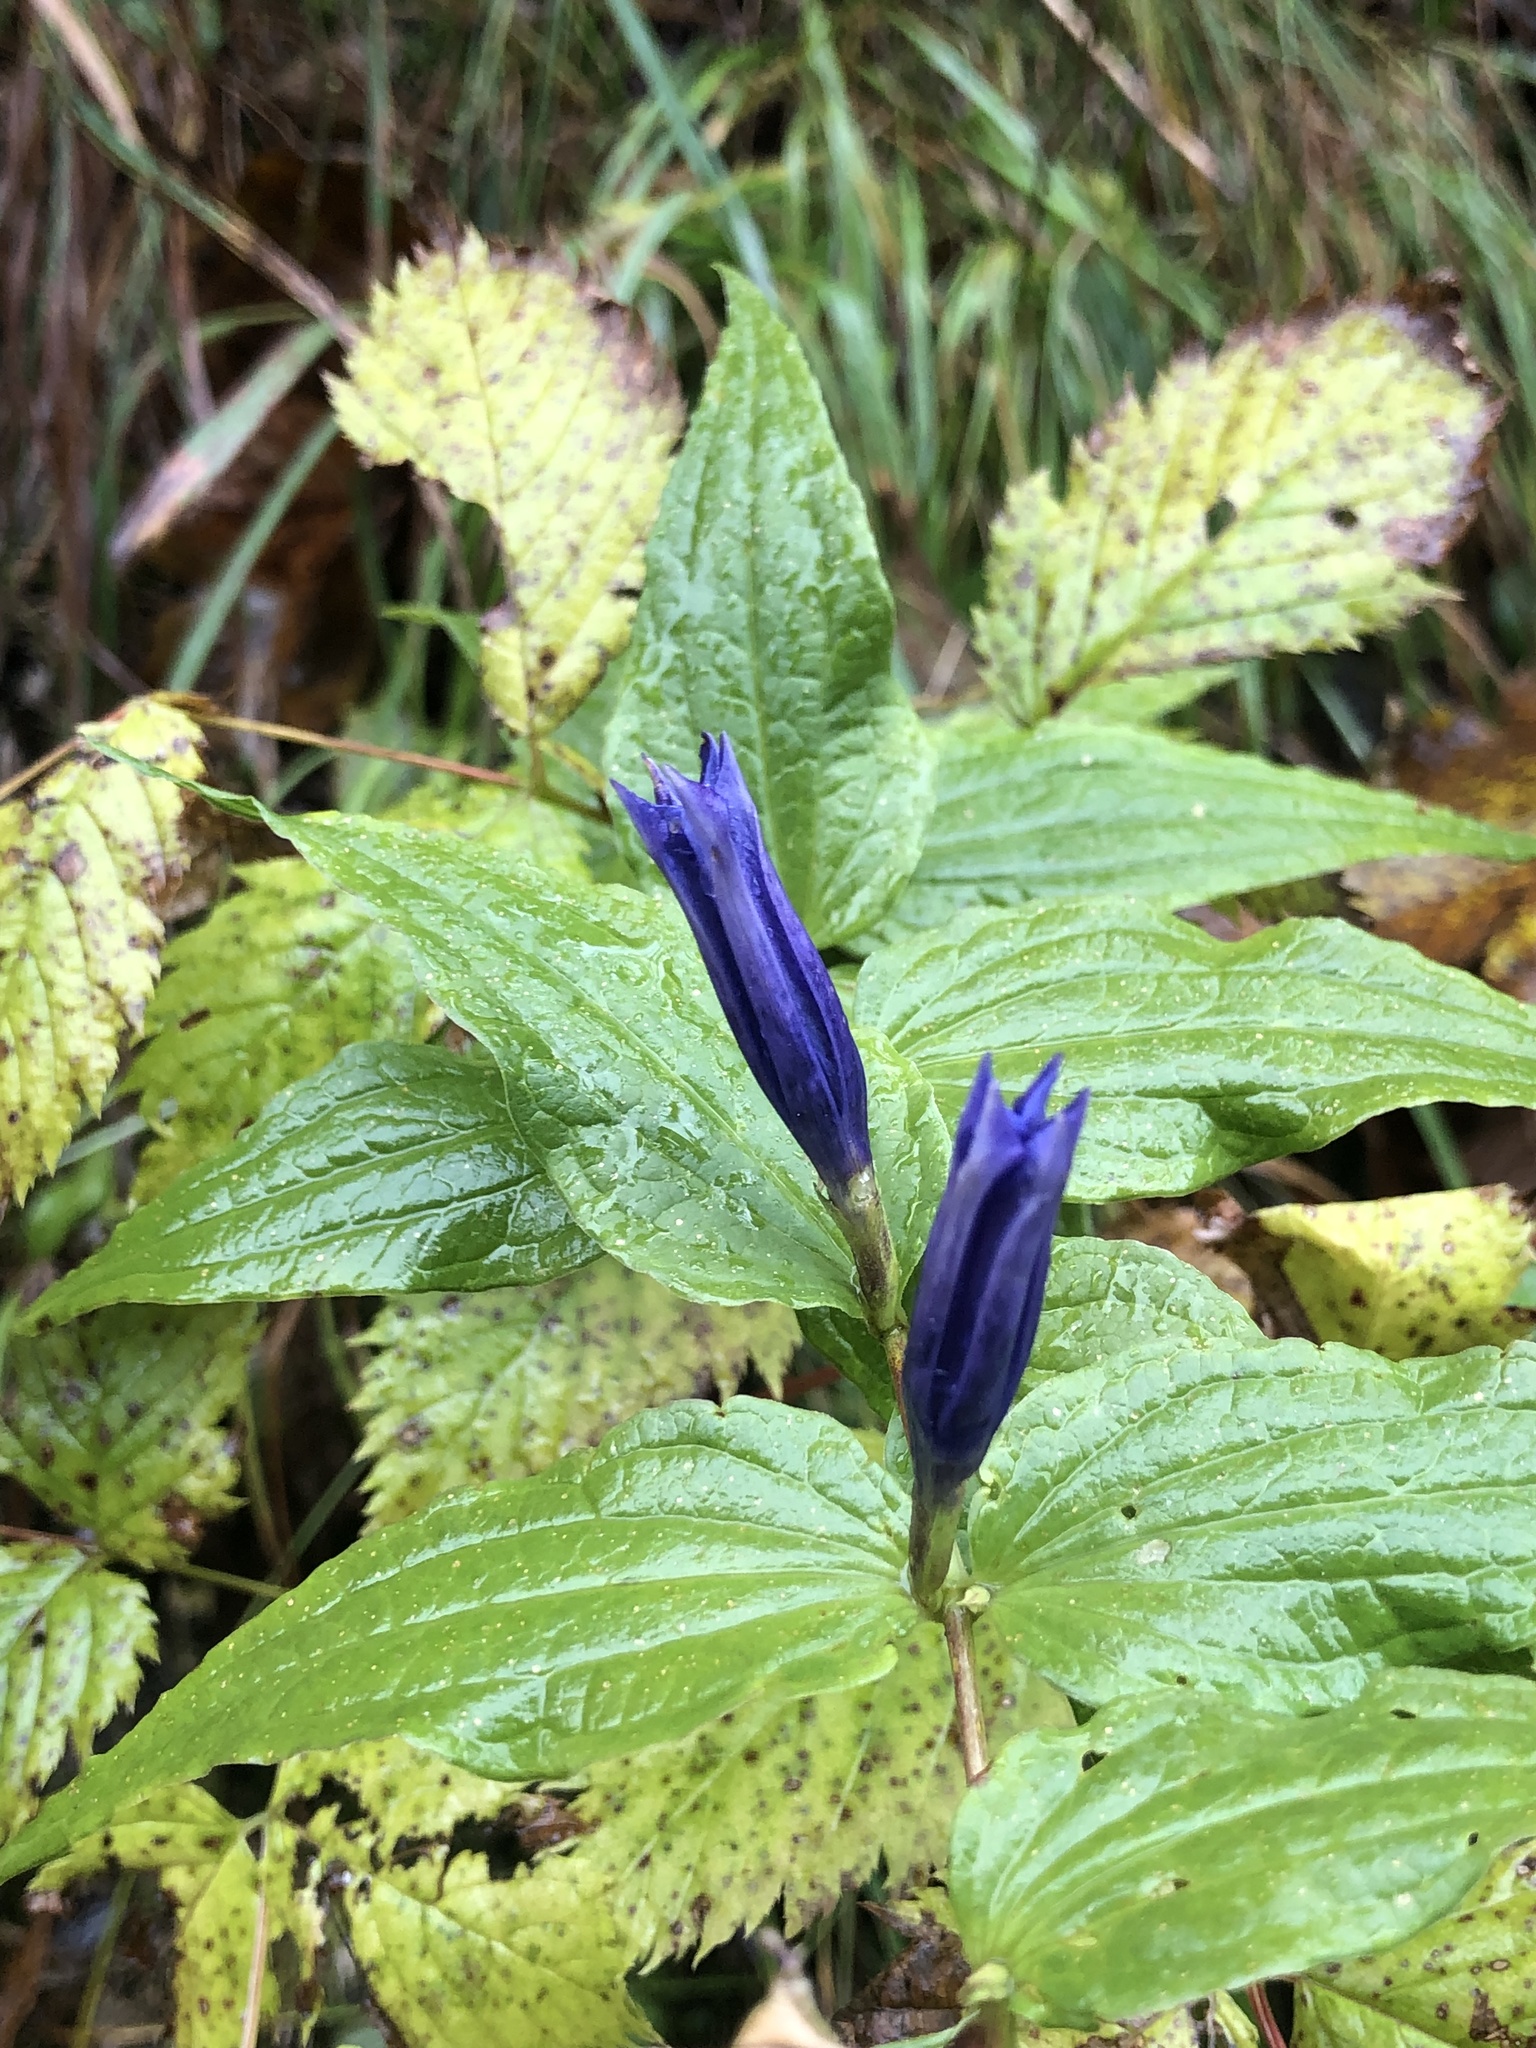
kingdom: Plantae
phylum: Tracheophyta
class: Magnoliopsida
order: Gentianales
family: Gentianaceae
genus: Gentiana
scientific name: Gentiana asclepiadea
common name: Willow gentian
